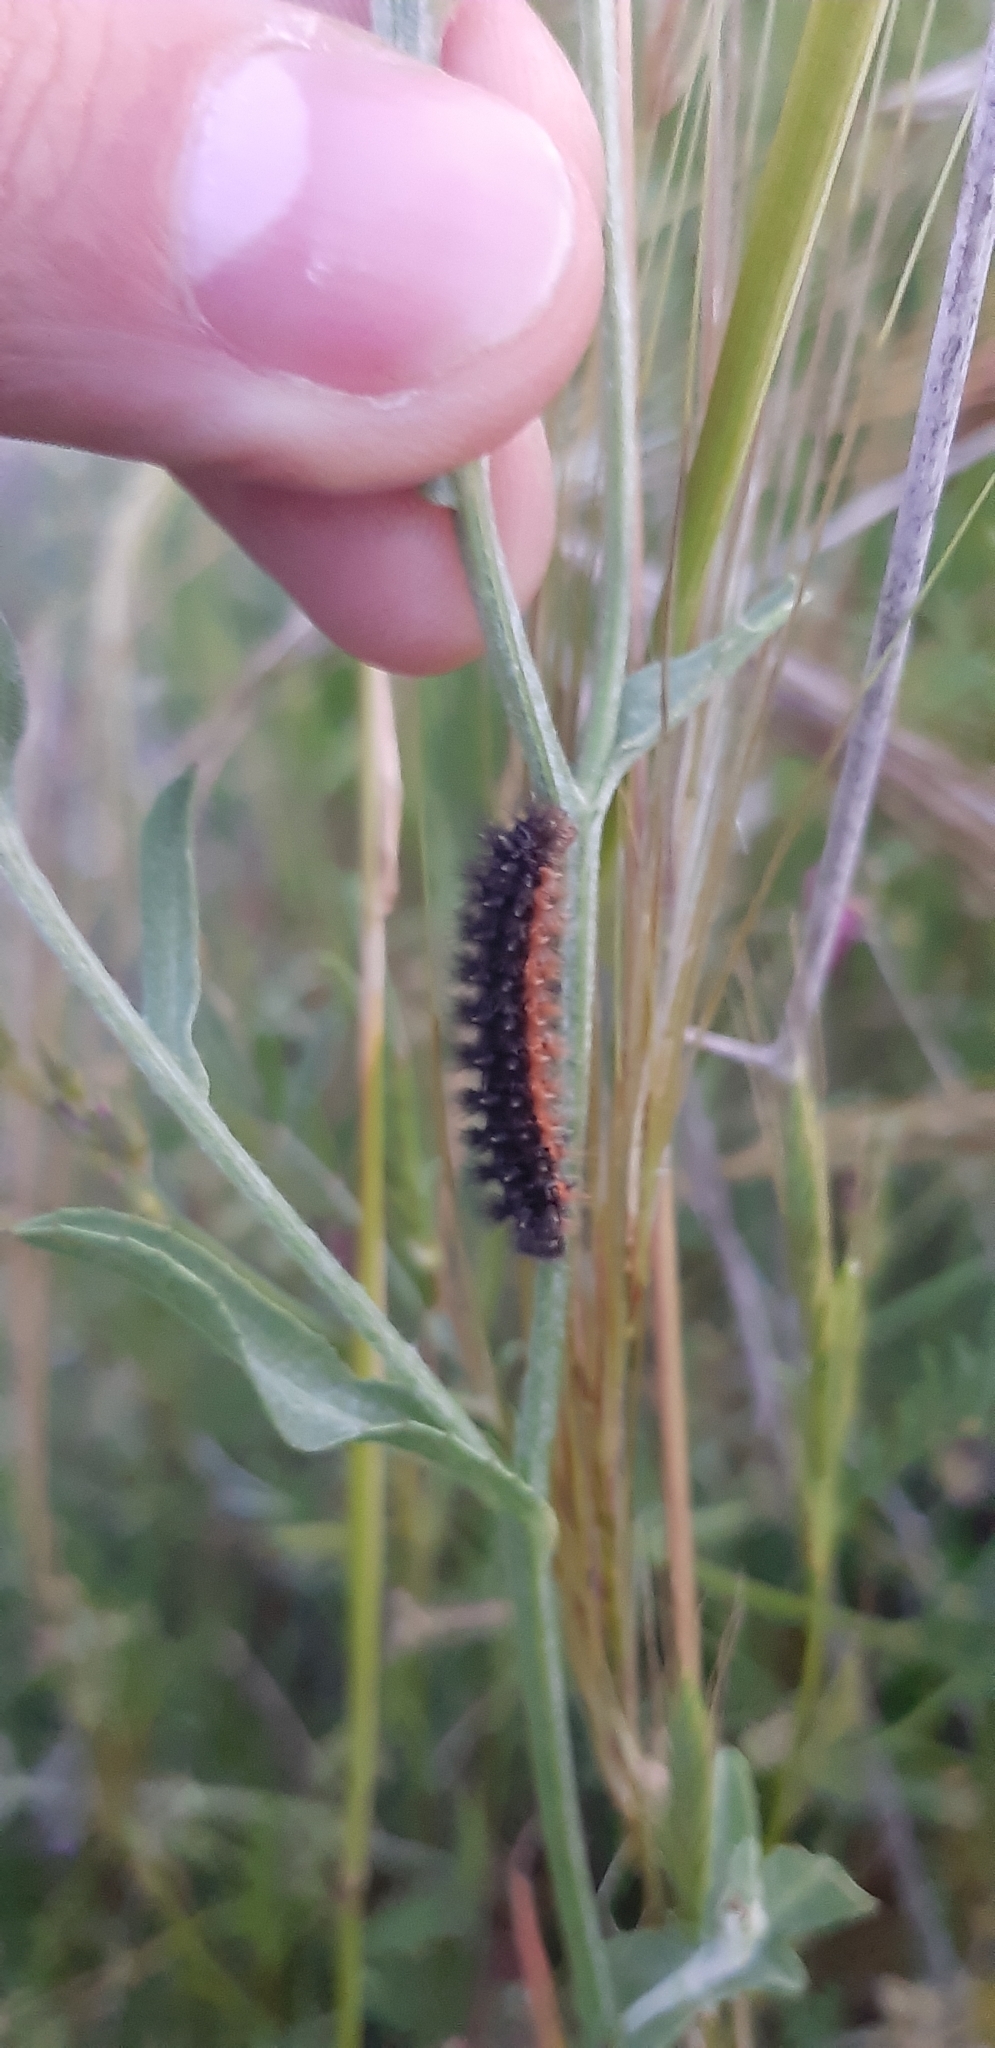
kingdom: Animalia
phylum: Arthropoda
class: Insecta
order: Lepidoptera
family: Nymphalidae
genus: Melitaea
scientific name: Melitaea phoebe
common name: Knapweed fritillary
